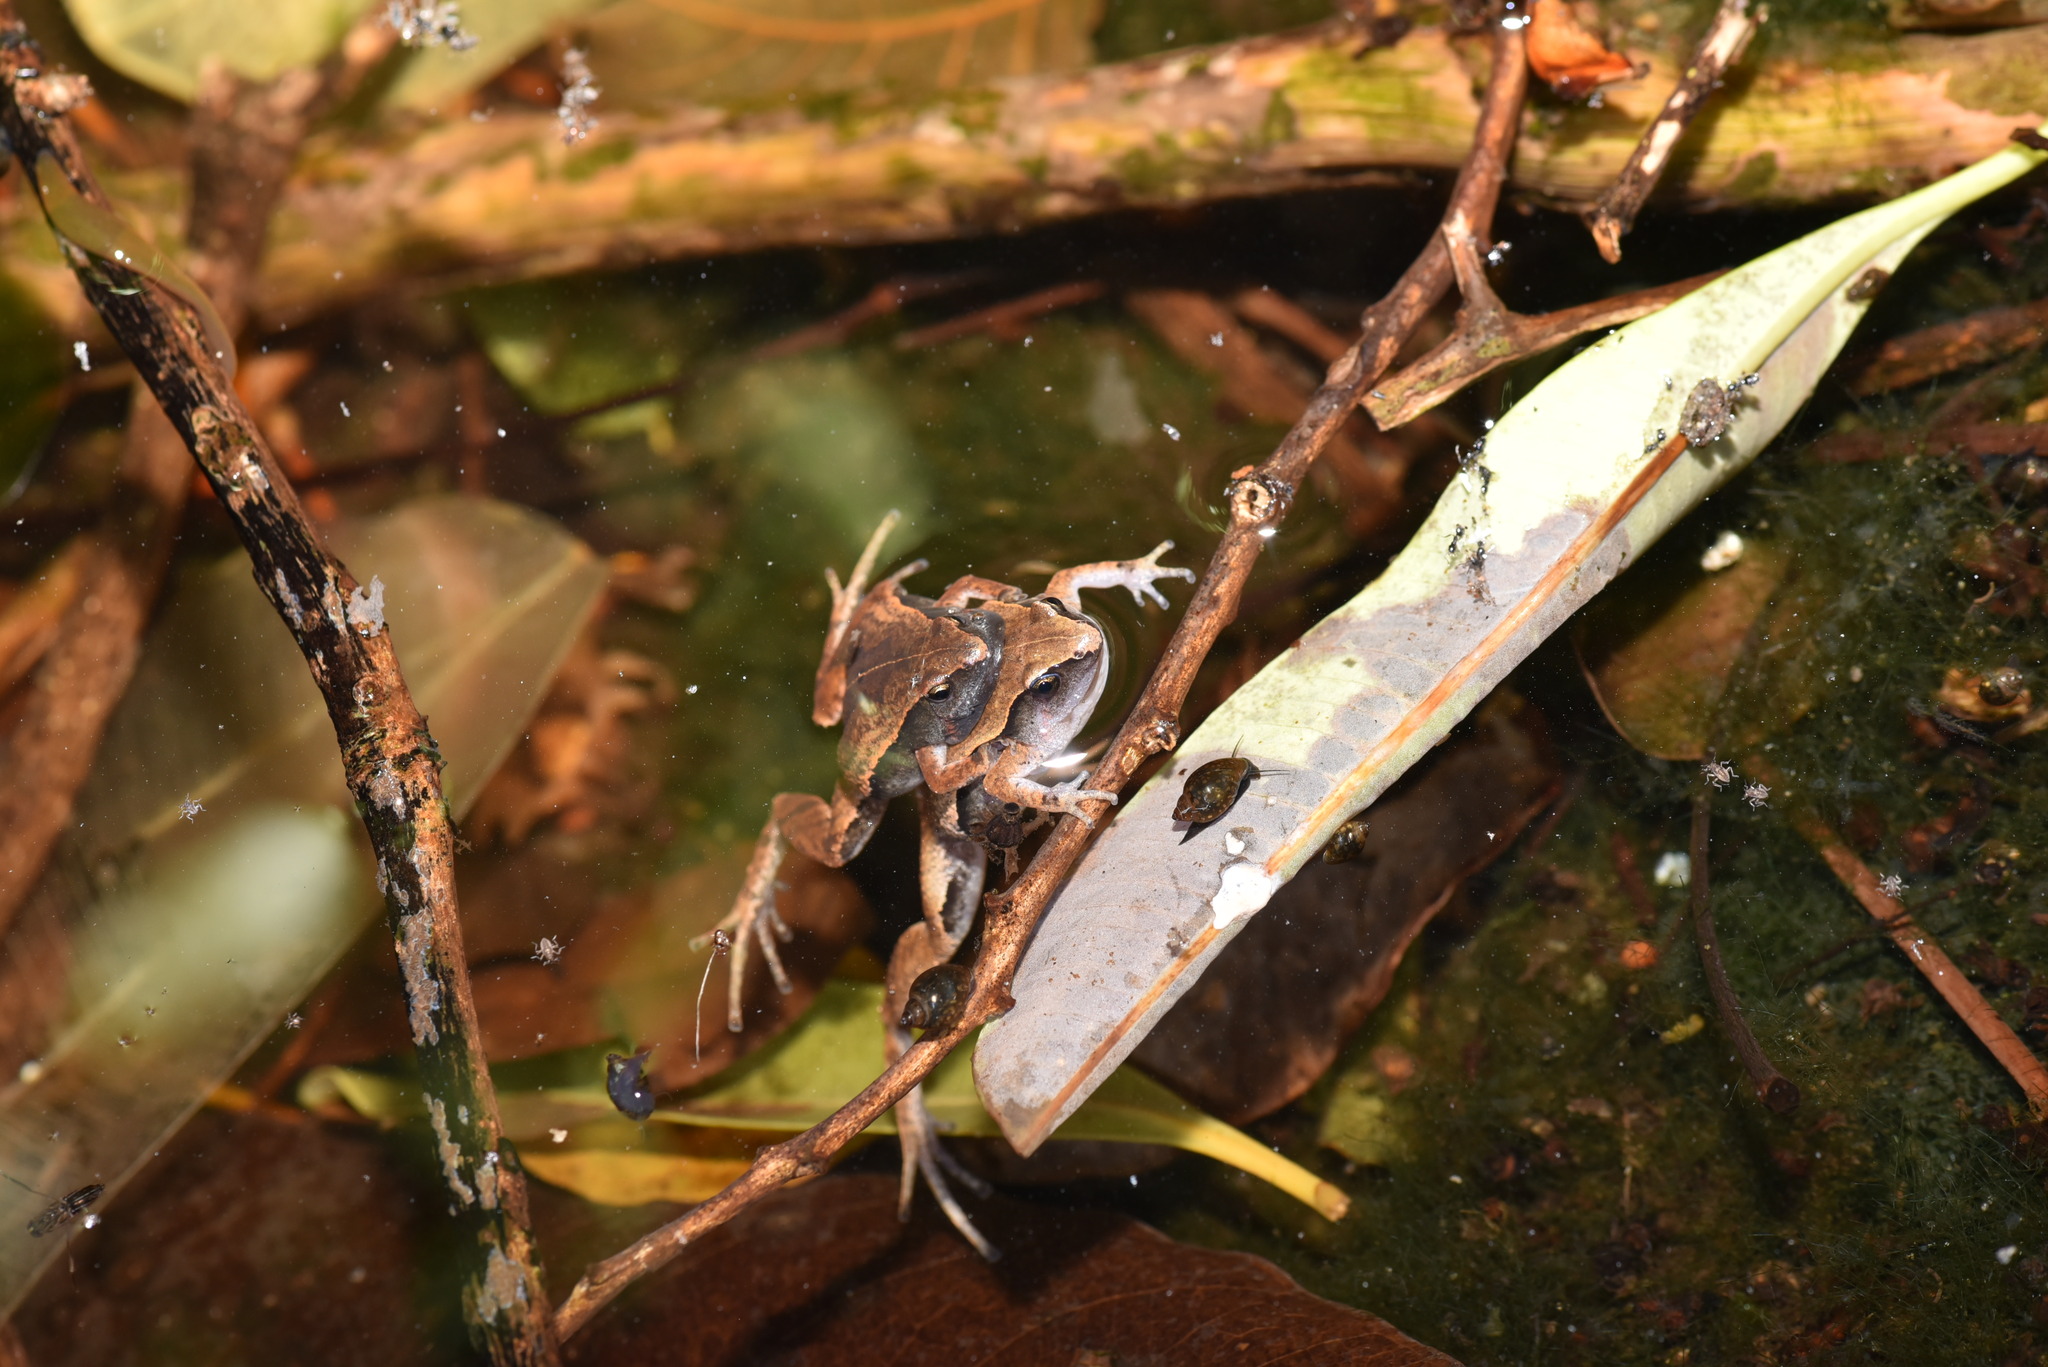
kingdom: Animalia
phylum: Chordata
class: Amphibia
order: Anura
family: Microhylidae
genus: Microhyla
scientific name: Microhyla heymonsi
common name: Taiwan rice frog,dark sided chorus frog
